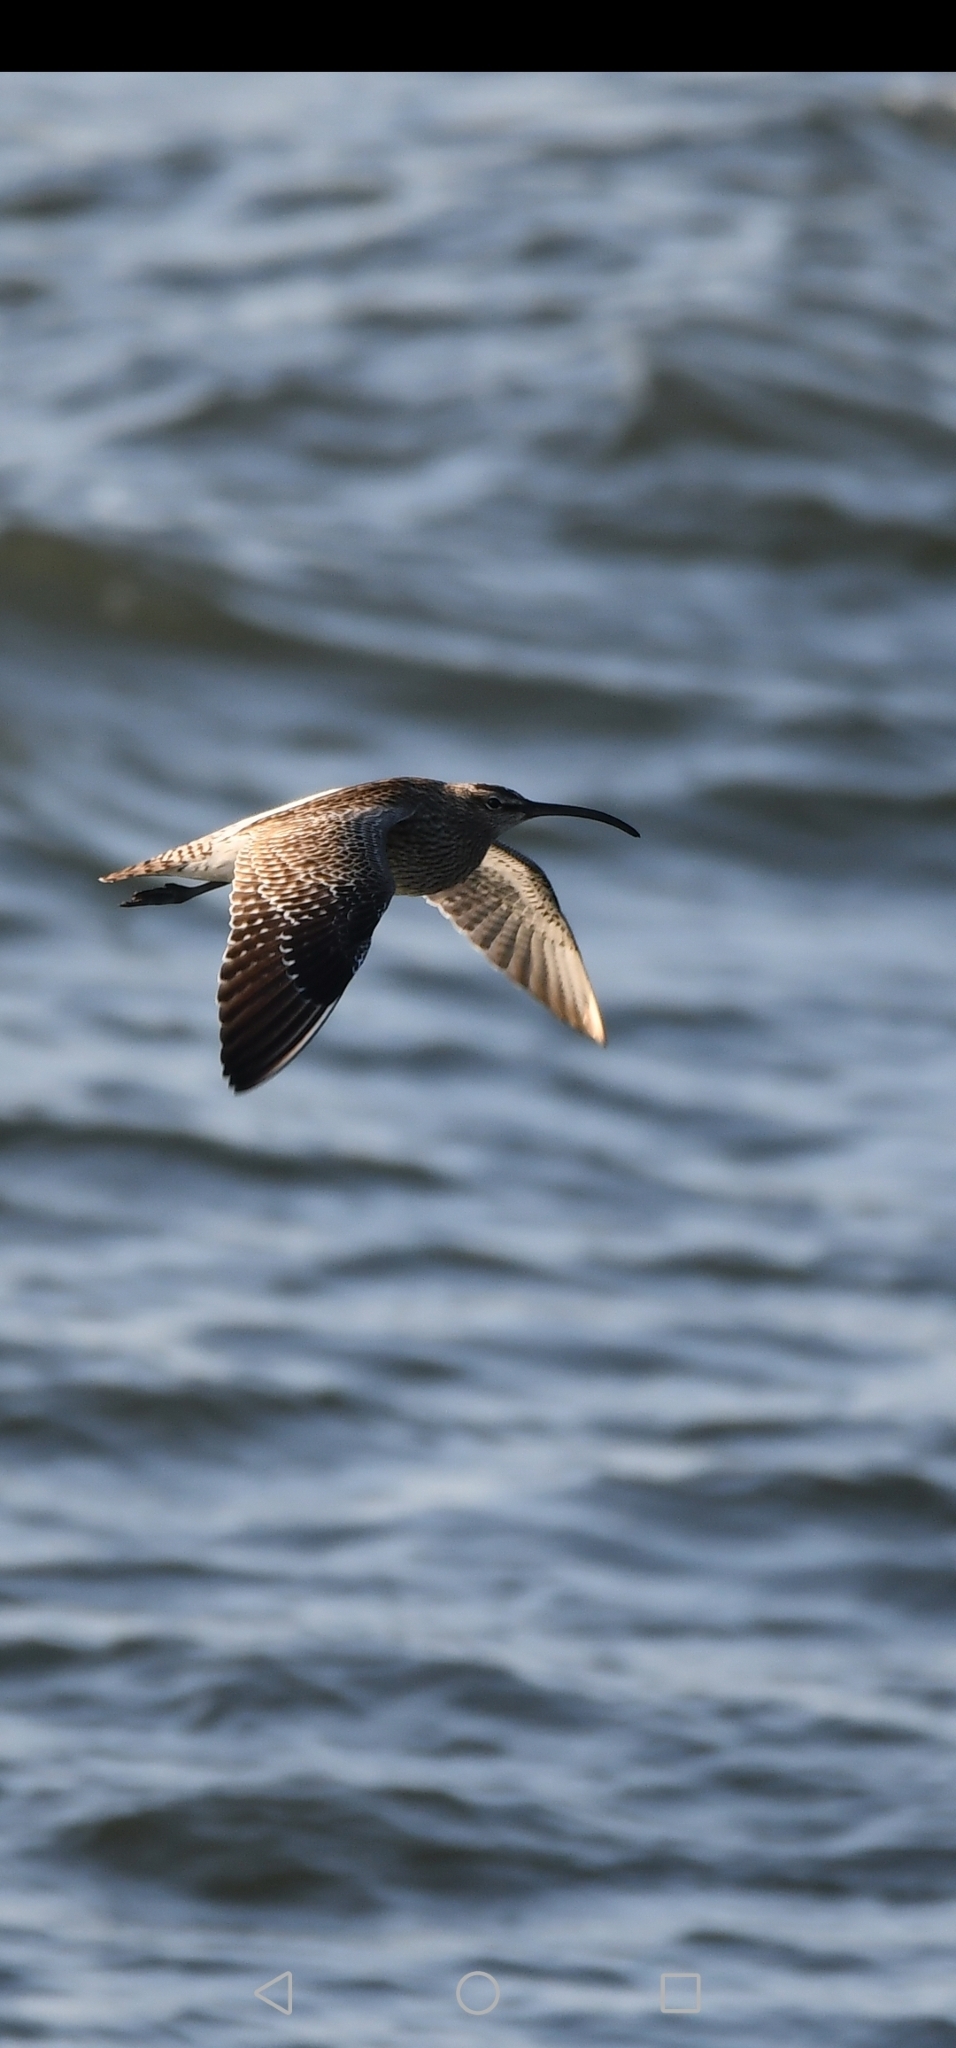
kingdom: Animalia
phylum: Chordata
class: Aves
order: Charadriiformes
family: Scolopacidae
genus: Numenius
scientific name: Numenius arquata
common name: Eurasian curlew
